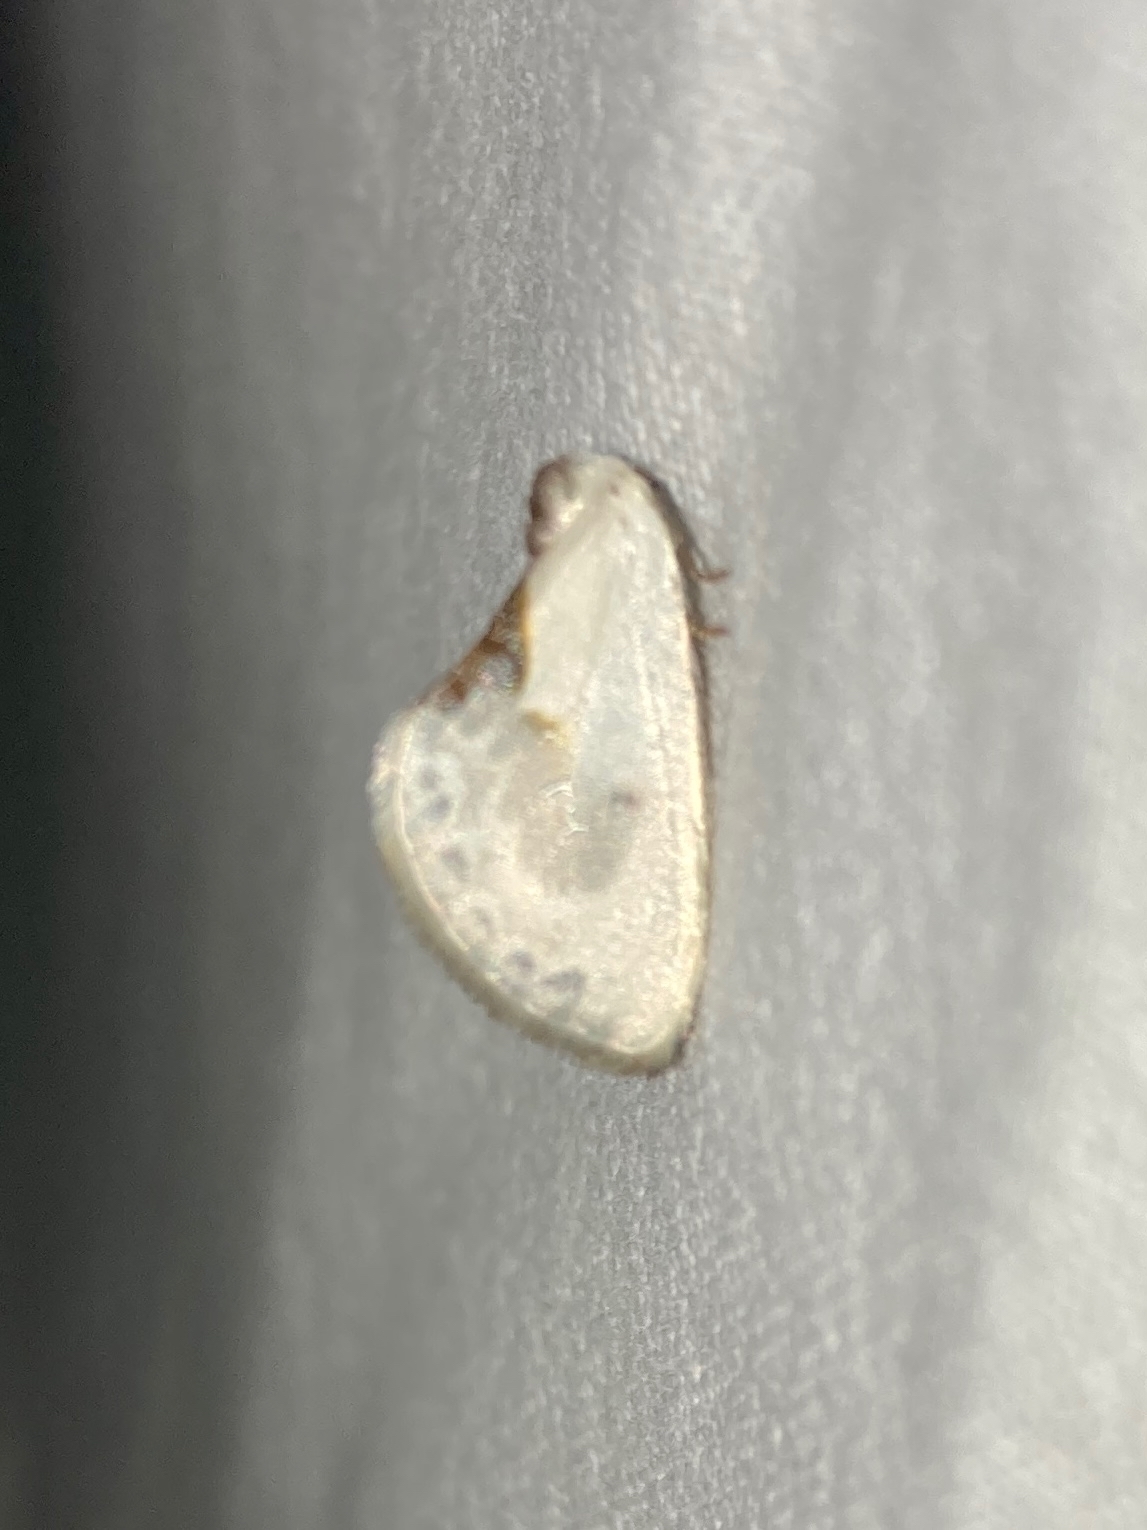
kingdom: Animalia
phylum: Arthropoda
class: Insecta
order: Lepidoptera
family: Drepanidae
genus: Cilix
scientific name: Cilix glaucata
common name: Chinese character
